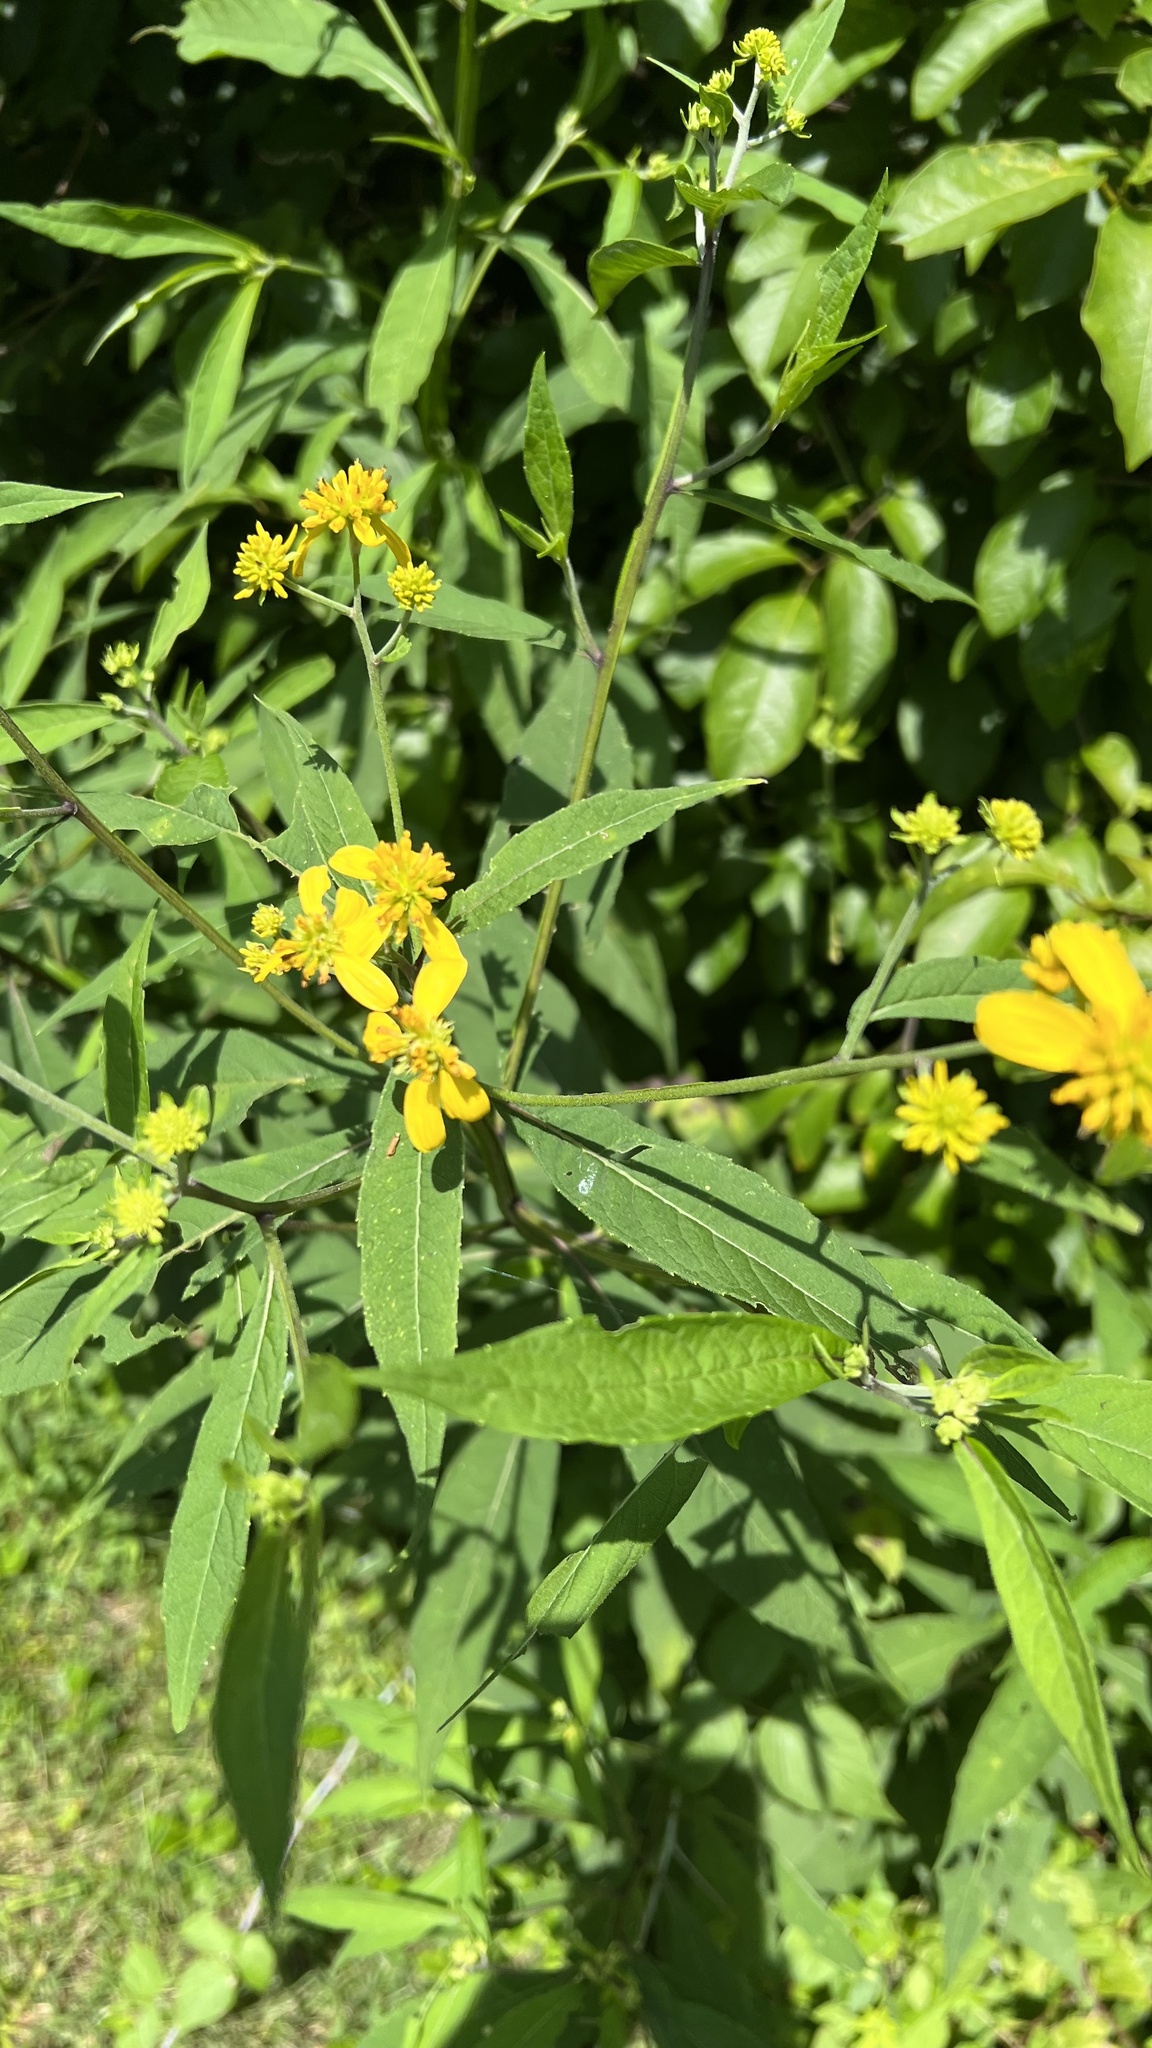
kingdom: Plantae
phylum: Tracheophyta
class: Magnoliopsida
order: Asterales
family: Asteraceae
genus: Verbesina
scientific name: Verbesina alternifolia
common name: Wingstem
